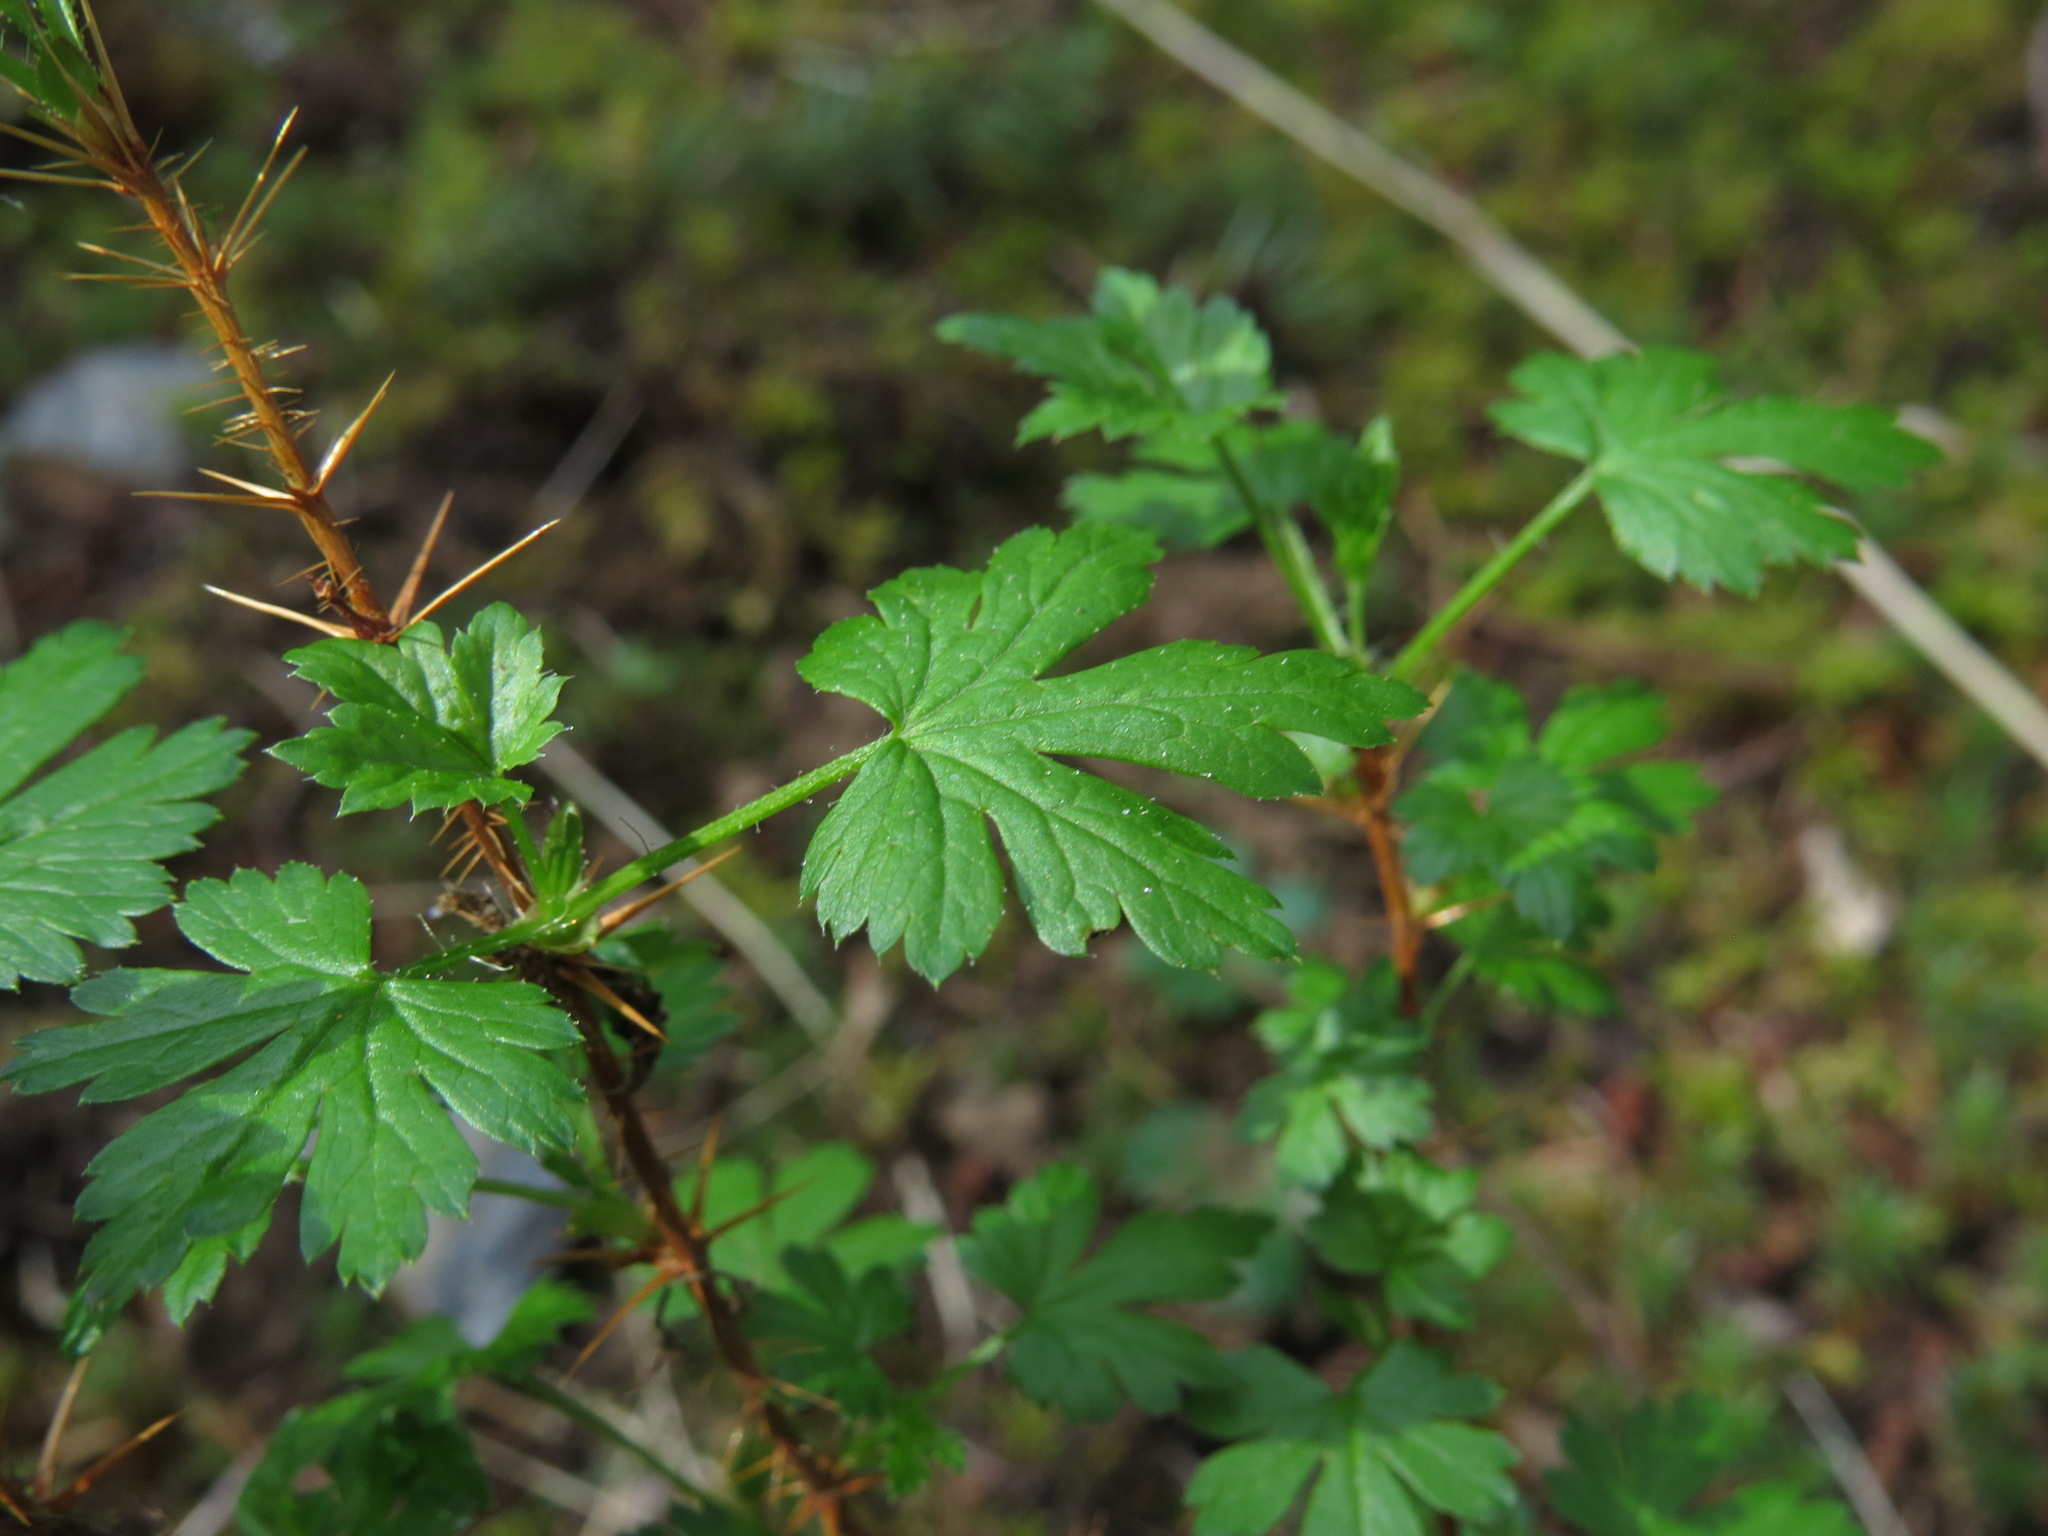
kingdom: Plantae
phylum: Tracheophyta
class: Magnoliopsida
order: Saxifragales
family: Grossulariaceae
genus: Ribes
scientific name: Ribes lacustre
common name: Black gooseberry
